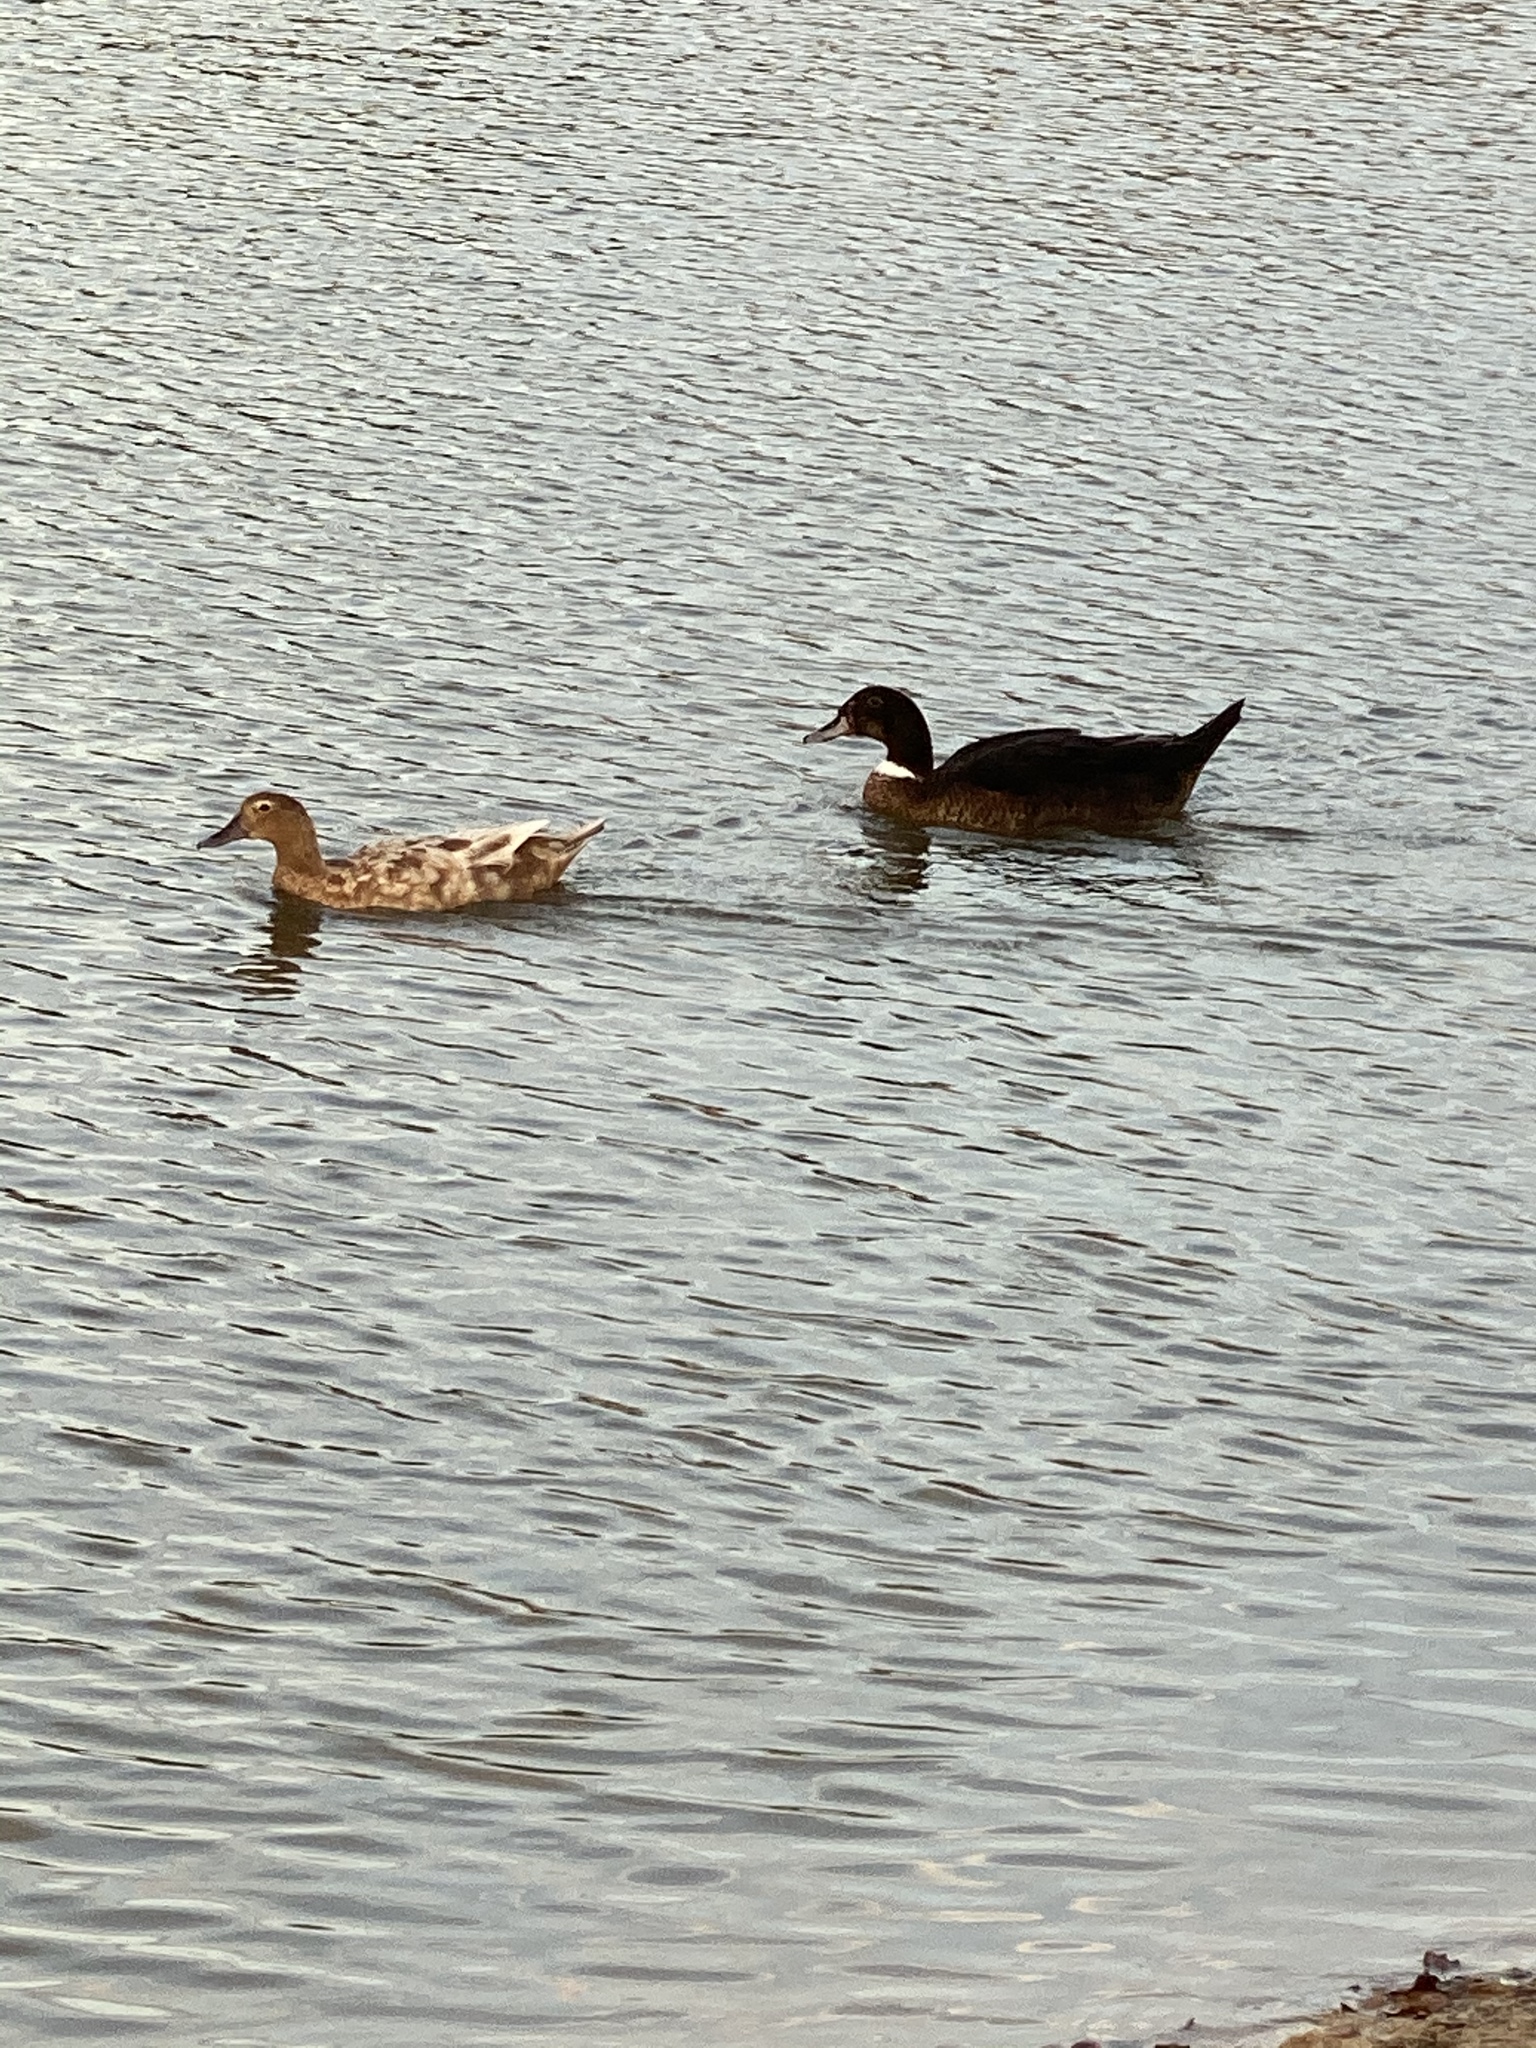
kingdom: Animalia
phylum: Chordata
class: Aves
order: Anseriformes
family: Anatidae
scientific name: Anatidae
